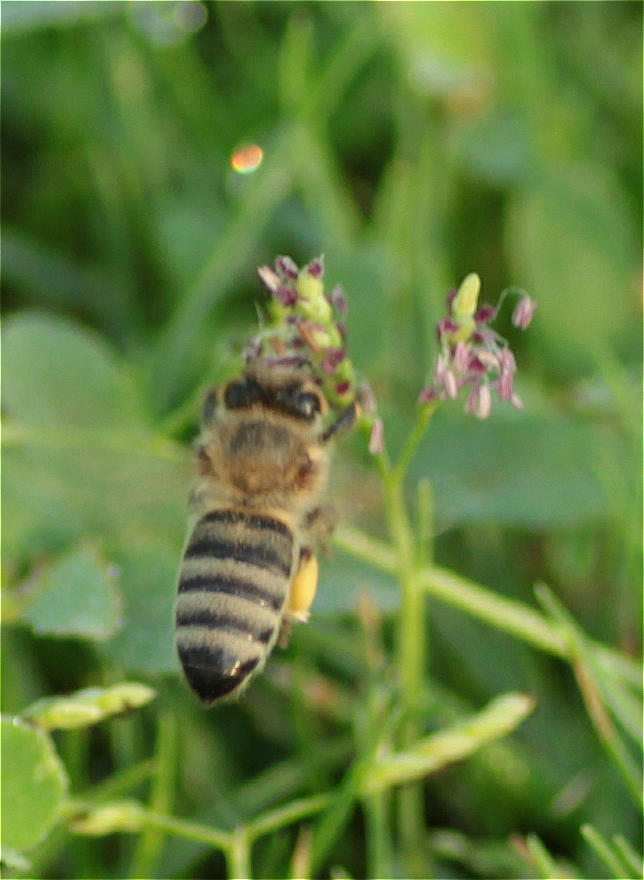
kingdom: Animalia
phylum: Arthropoda
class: Insecta
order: Hymenoptera
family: Apidae
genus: Apis
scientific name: Apis mellifera
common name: Honey bee
